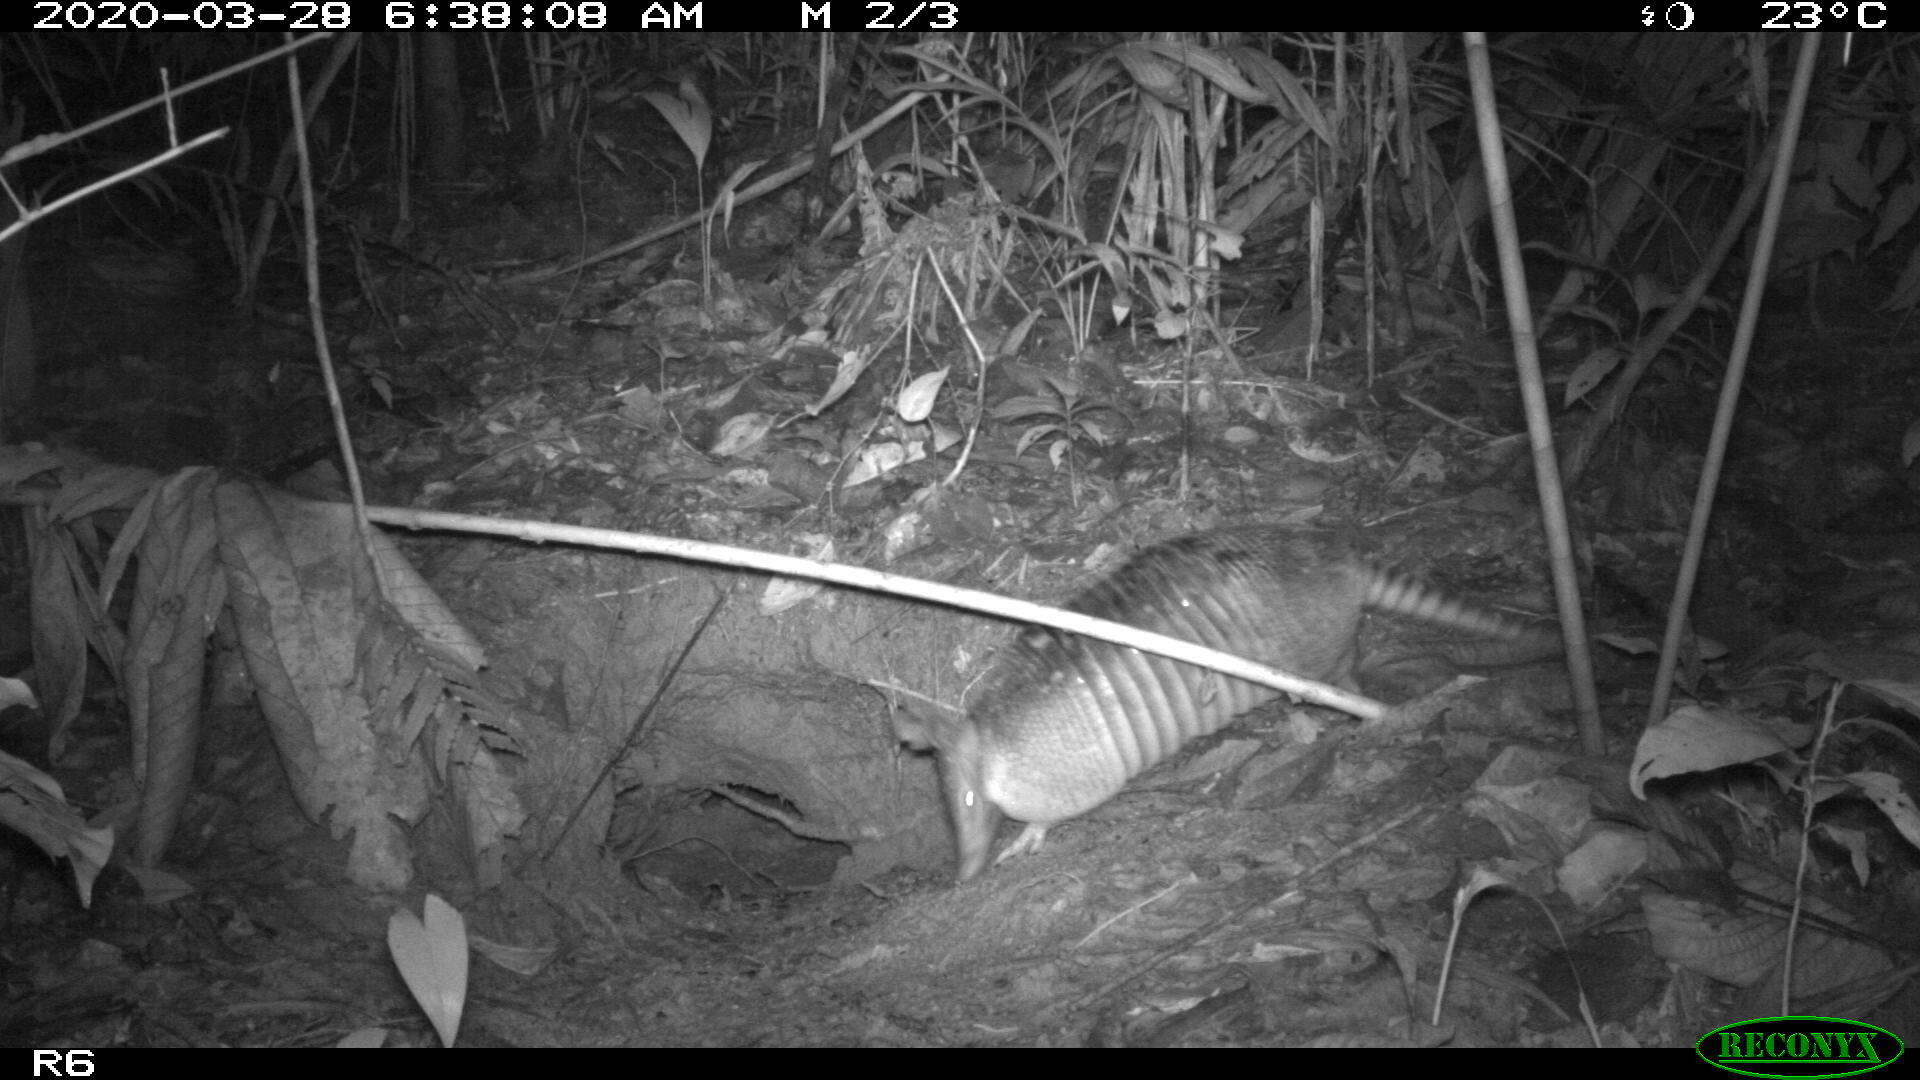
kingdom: Animalia
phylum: Chordata
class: Mammalia
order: Cingulata
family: Dasypodidae
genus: Dasypus
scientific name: Dasypus novemcinctus
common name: Nine-banded armadillo
